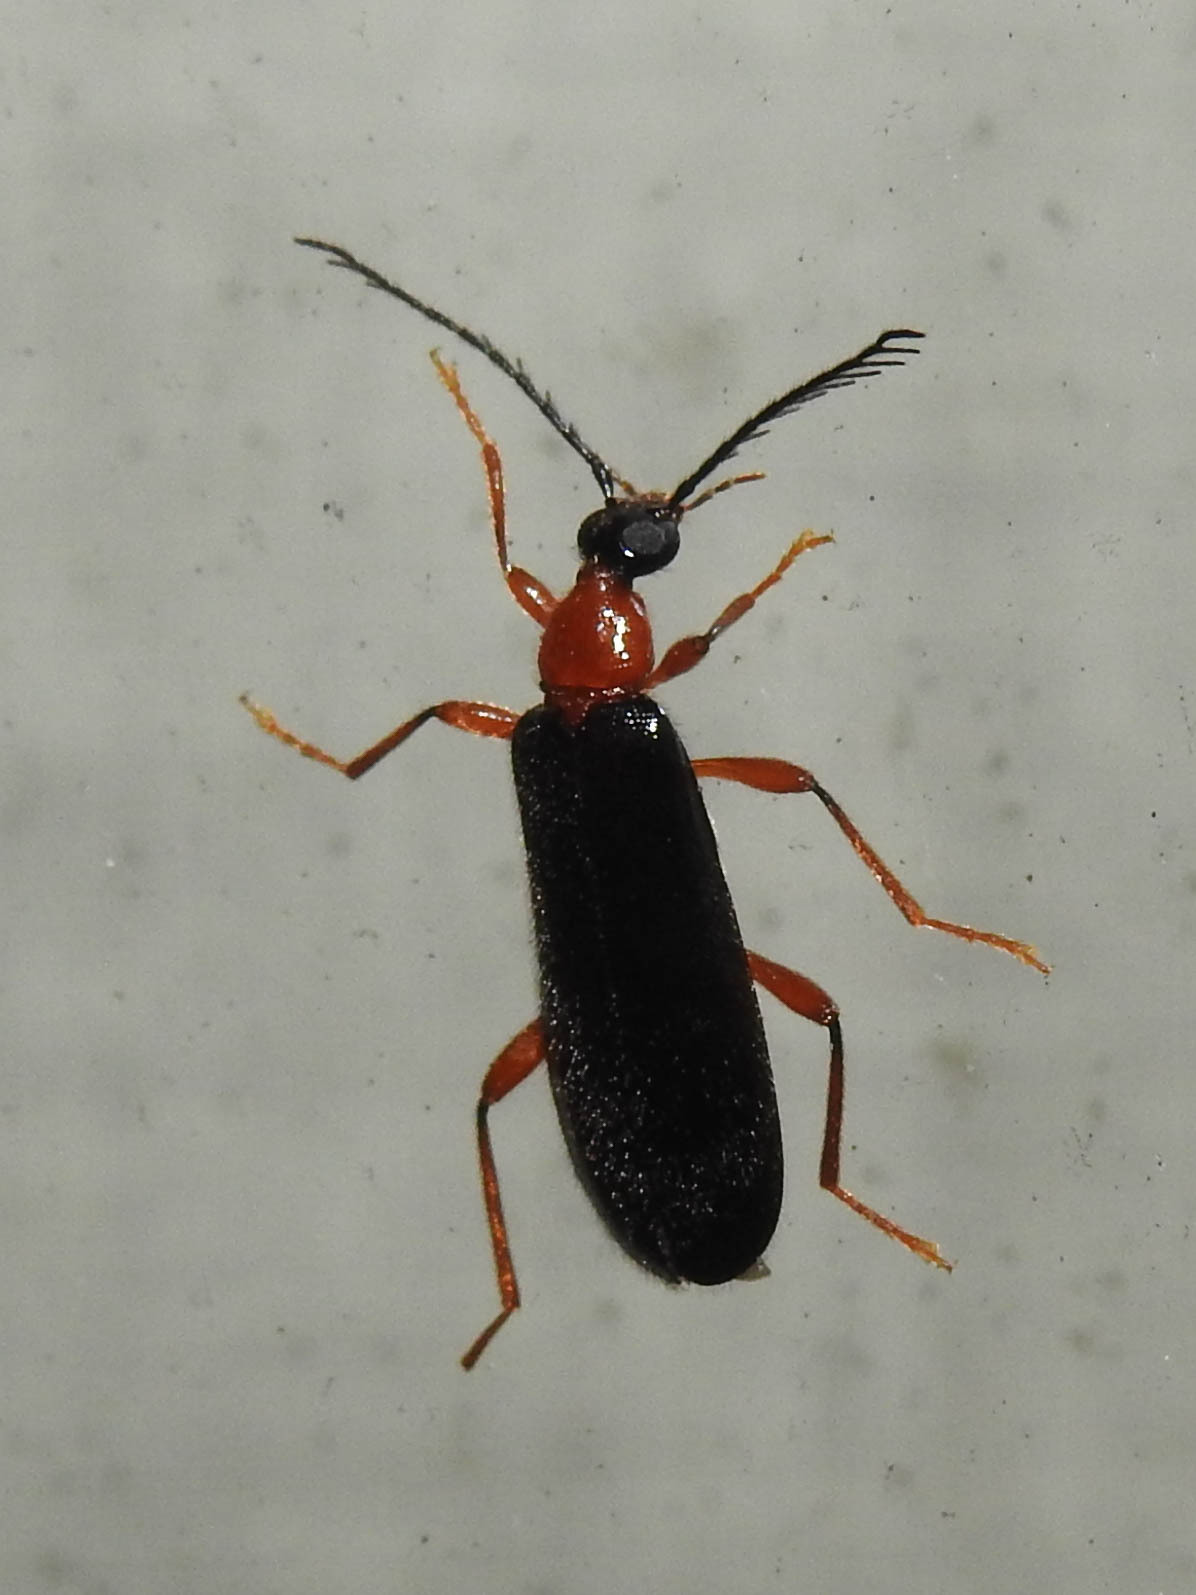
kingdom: Animalia
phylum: Arthropoda
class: Insecta
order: Coleoptera
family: Pyrochroidae
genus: Dendroides
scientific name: Dendroides canadensis
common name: Canada fire-colored beetle
